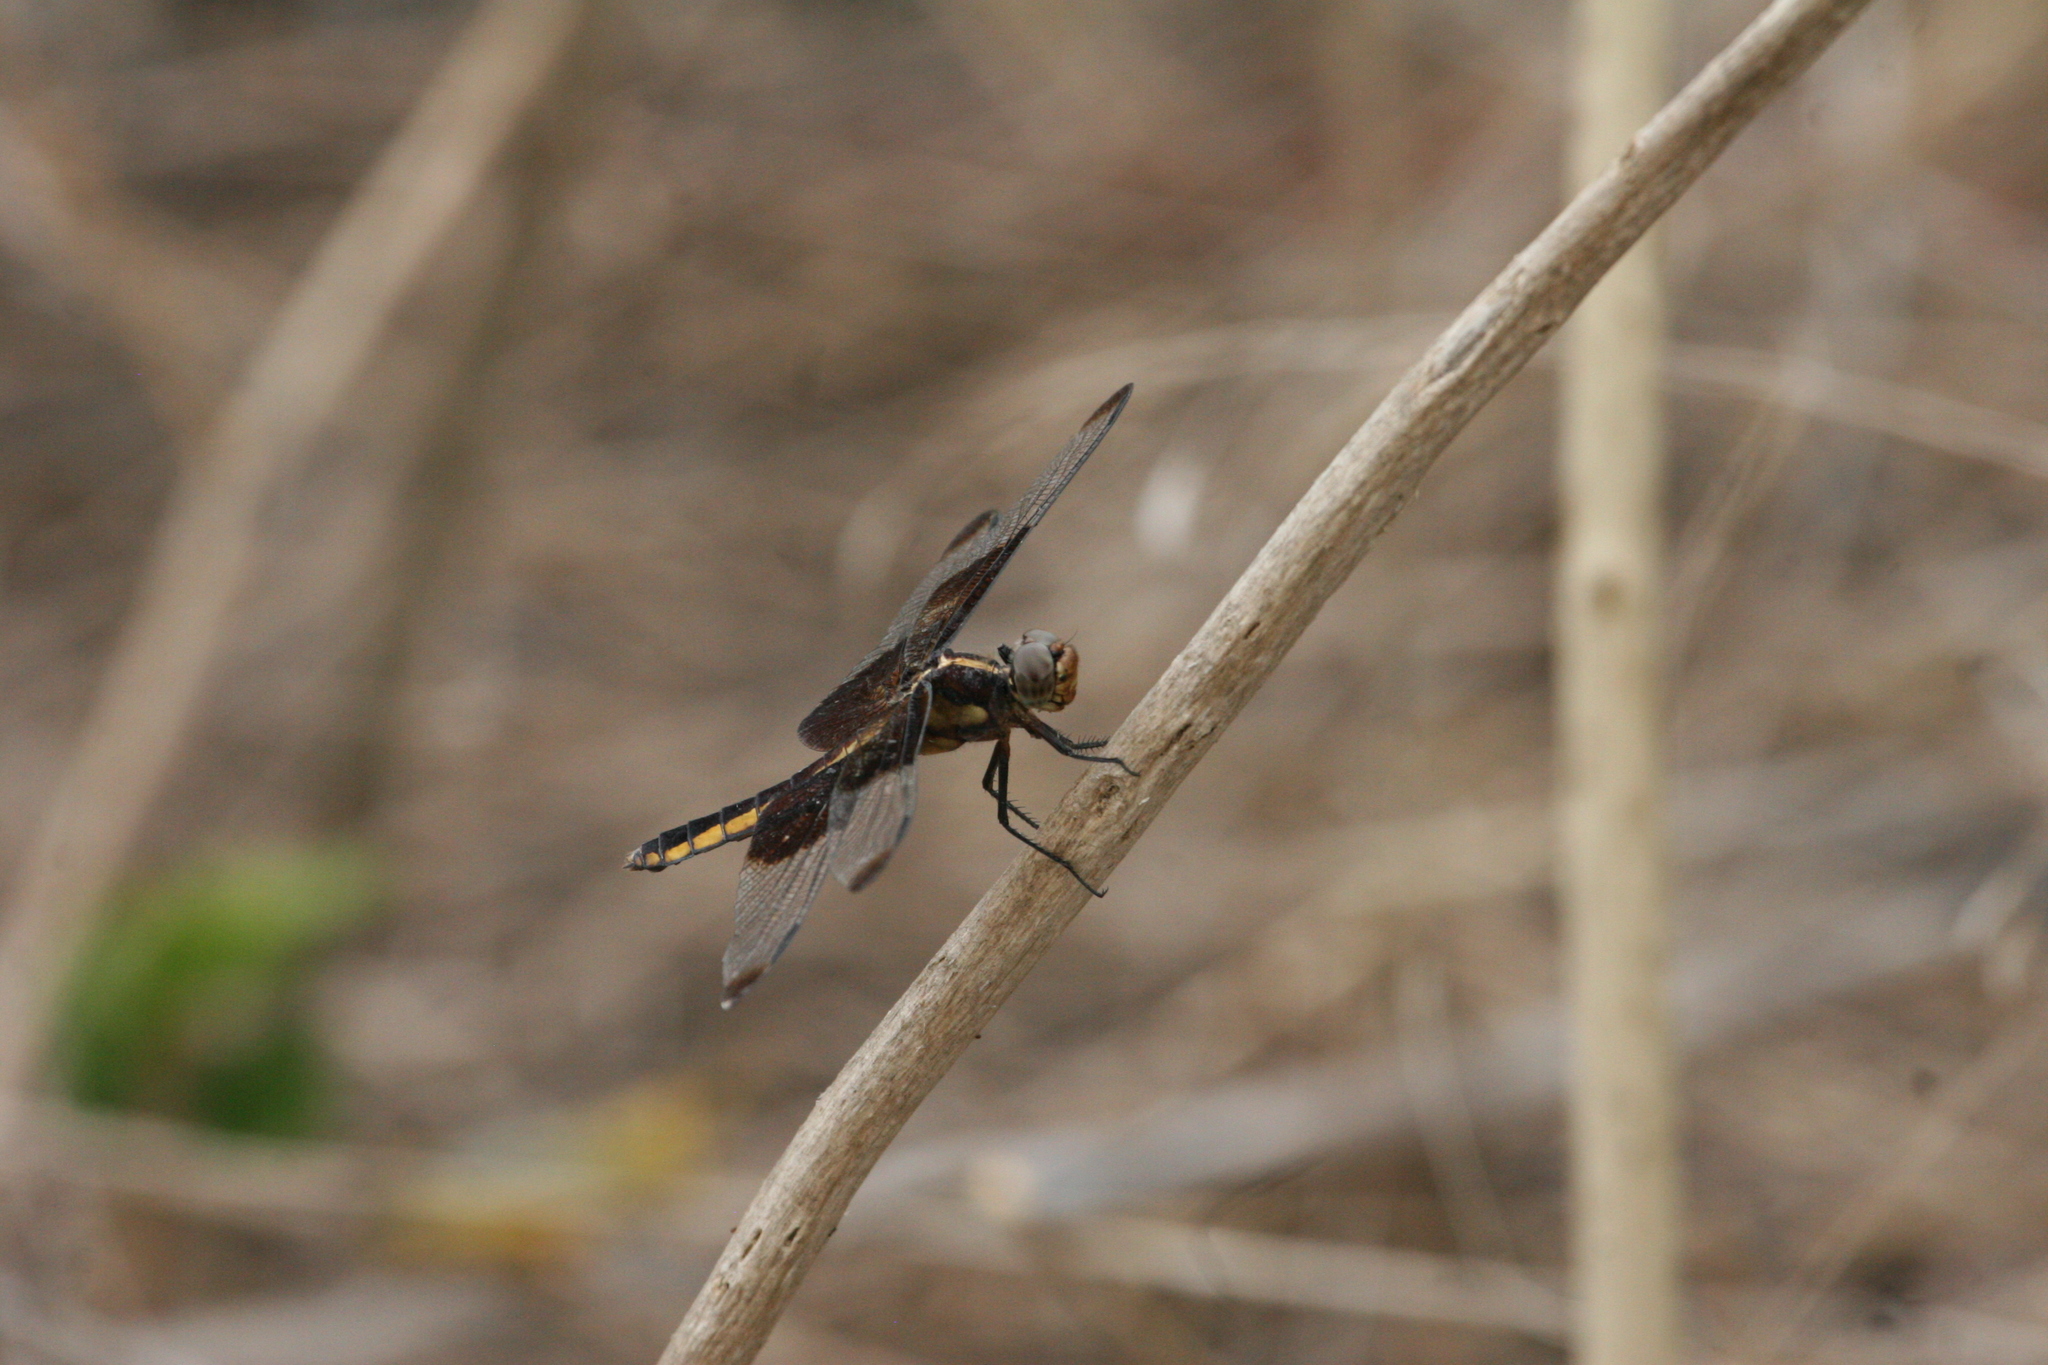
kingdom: Animalia
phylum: Arthropoda
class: Insecta
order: Odonata
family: Libellulidae
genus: Libellula
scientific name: Libellula luctuosa
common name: Widow skimmer
